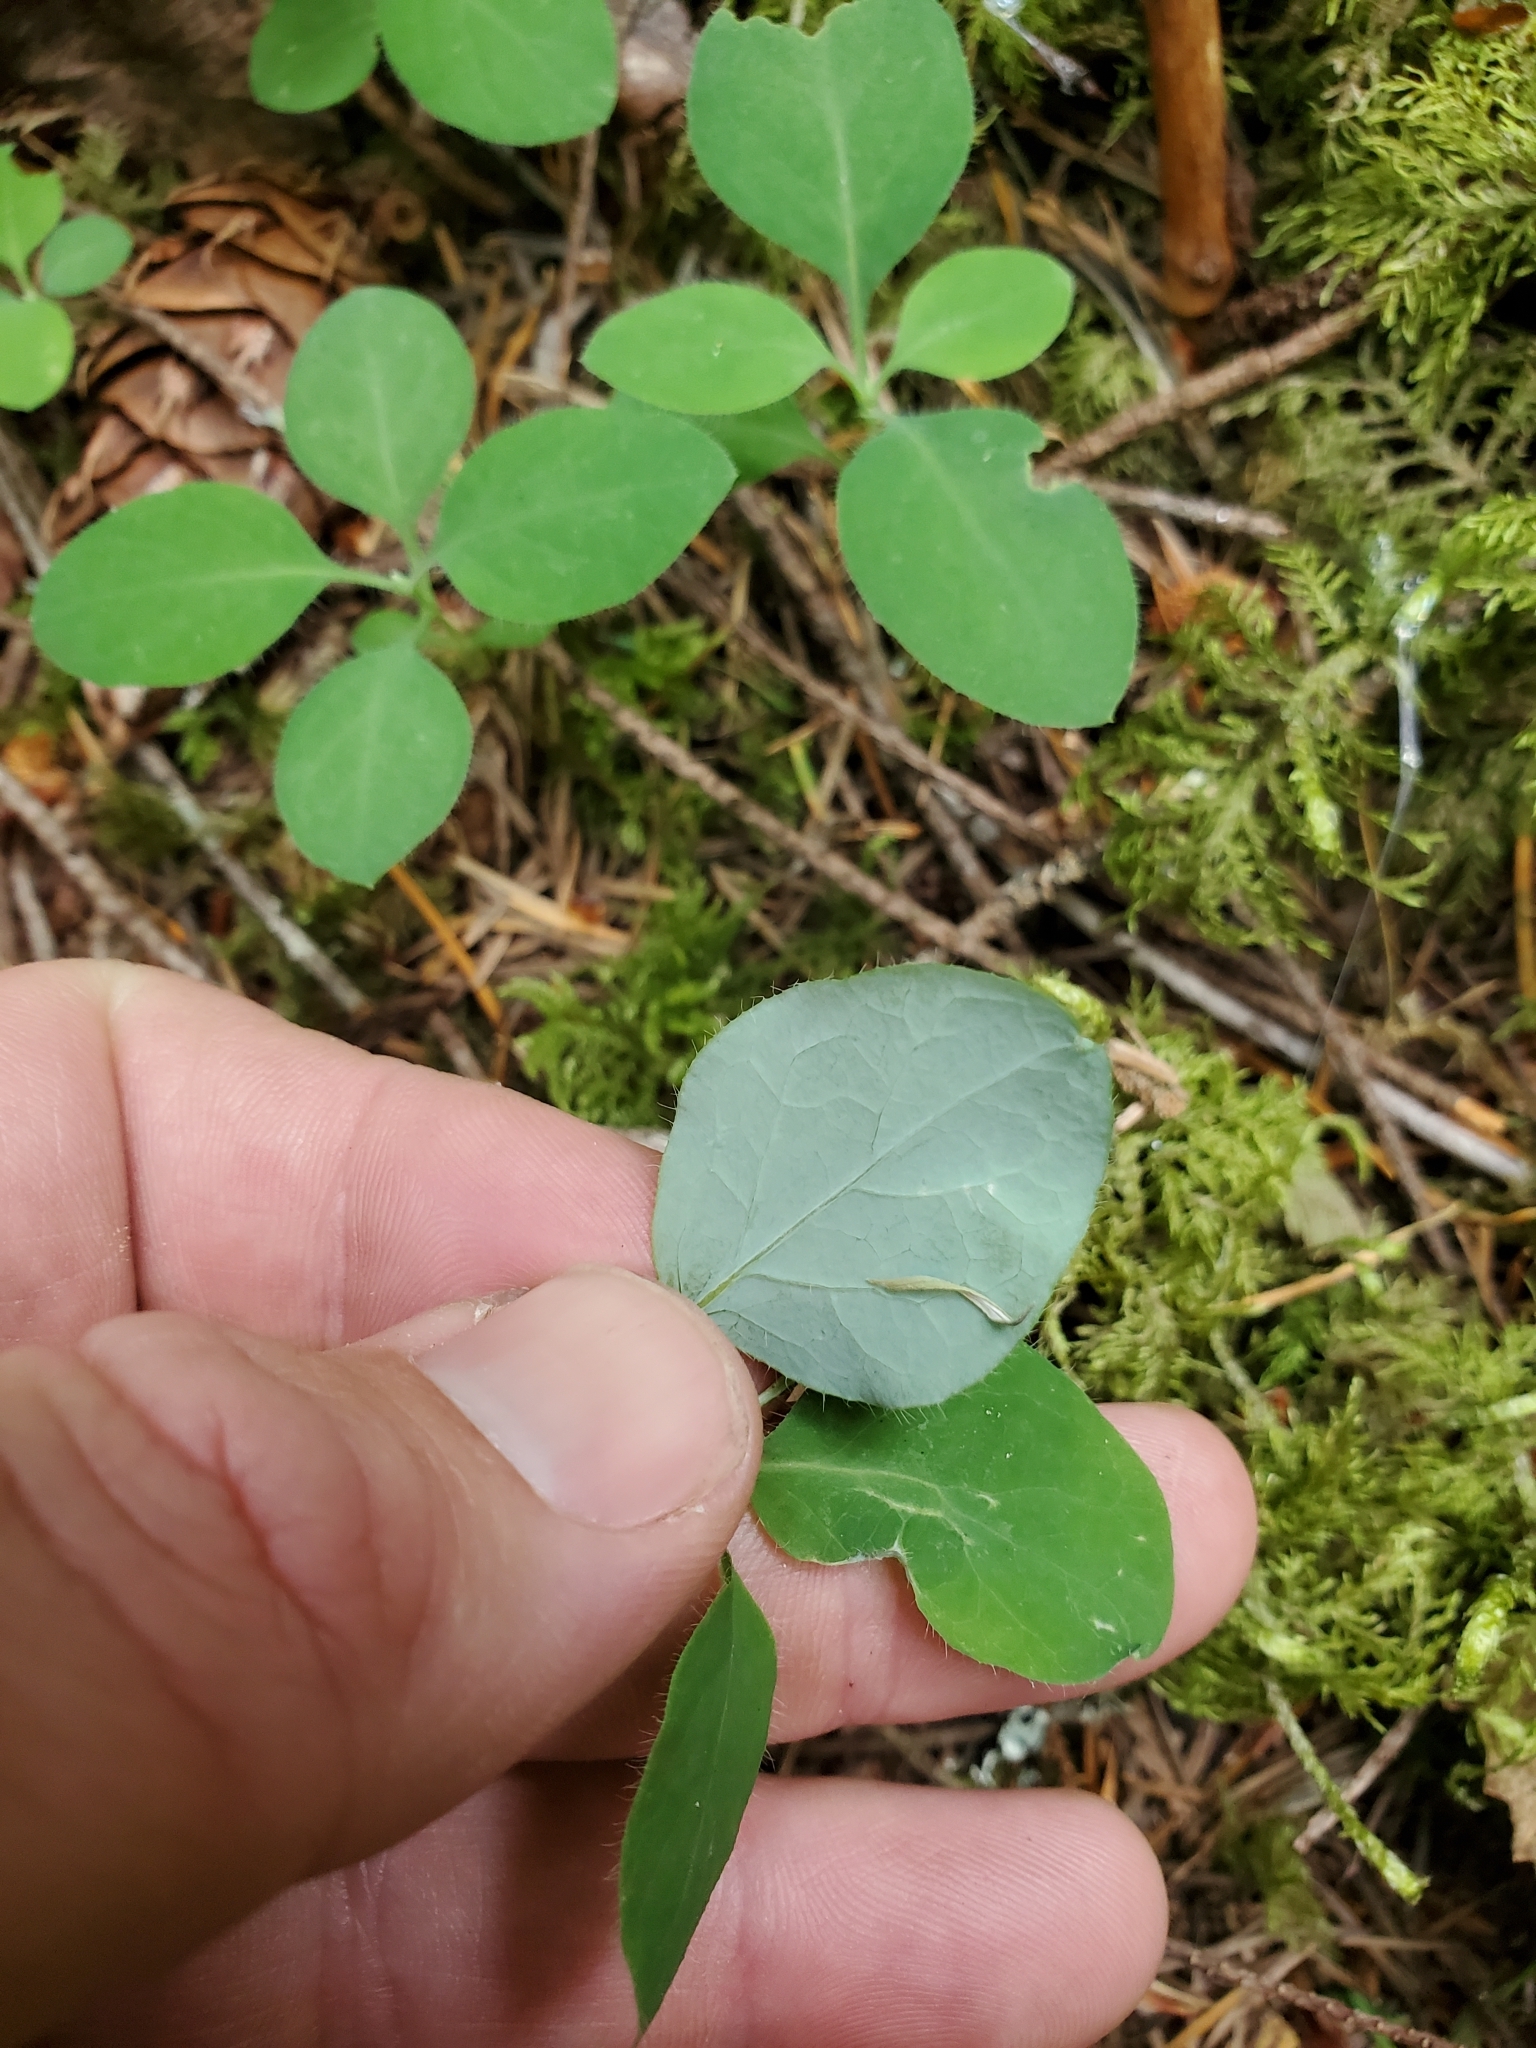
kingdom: Plantae
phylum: Tracheophyta
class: Magnoliopsida
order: Dipsacales
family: Caprifoliaceae
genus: Lonicera
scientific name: Lonicera ciliosa
